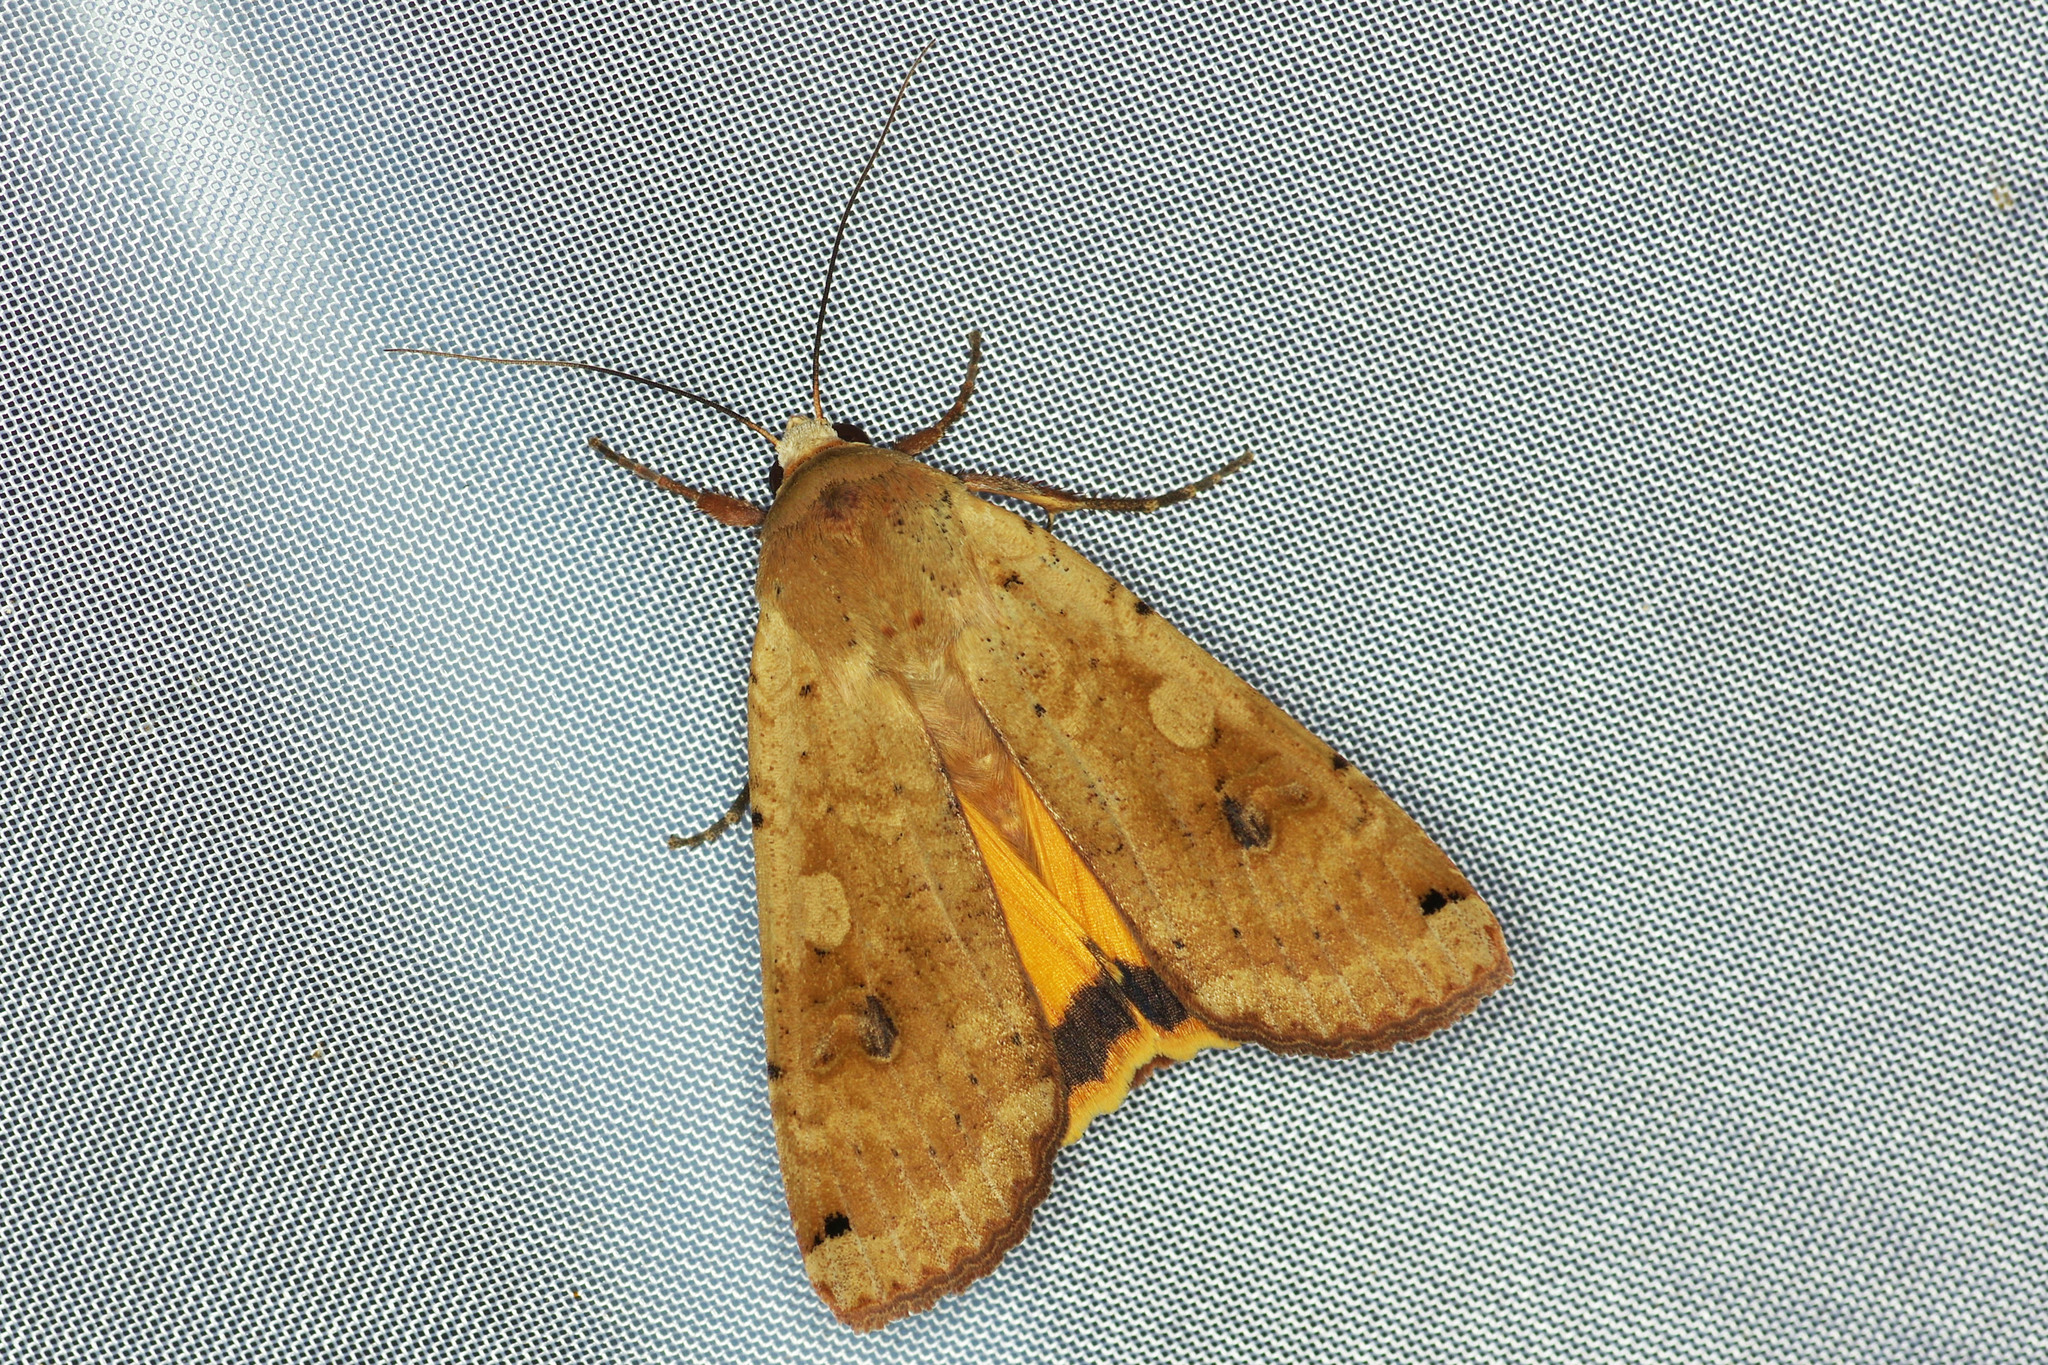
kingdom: Animalia
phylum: Arthropoda
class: Insecta
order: Lepidoptera
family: Noctuidae
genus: Noctua
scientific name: Noctua pronuba
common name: Large yellow underwing
